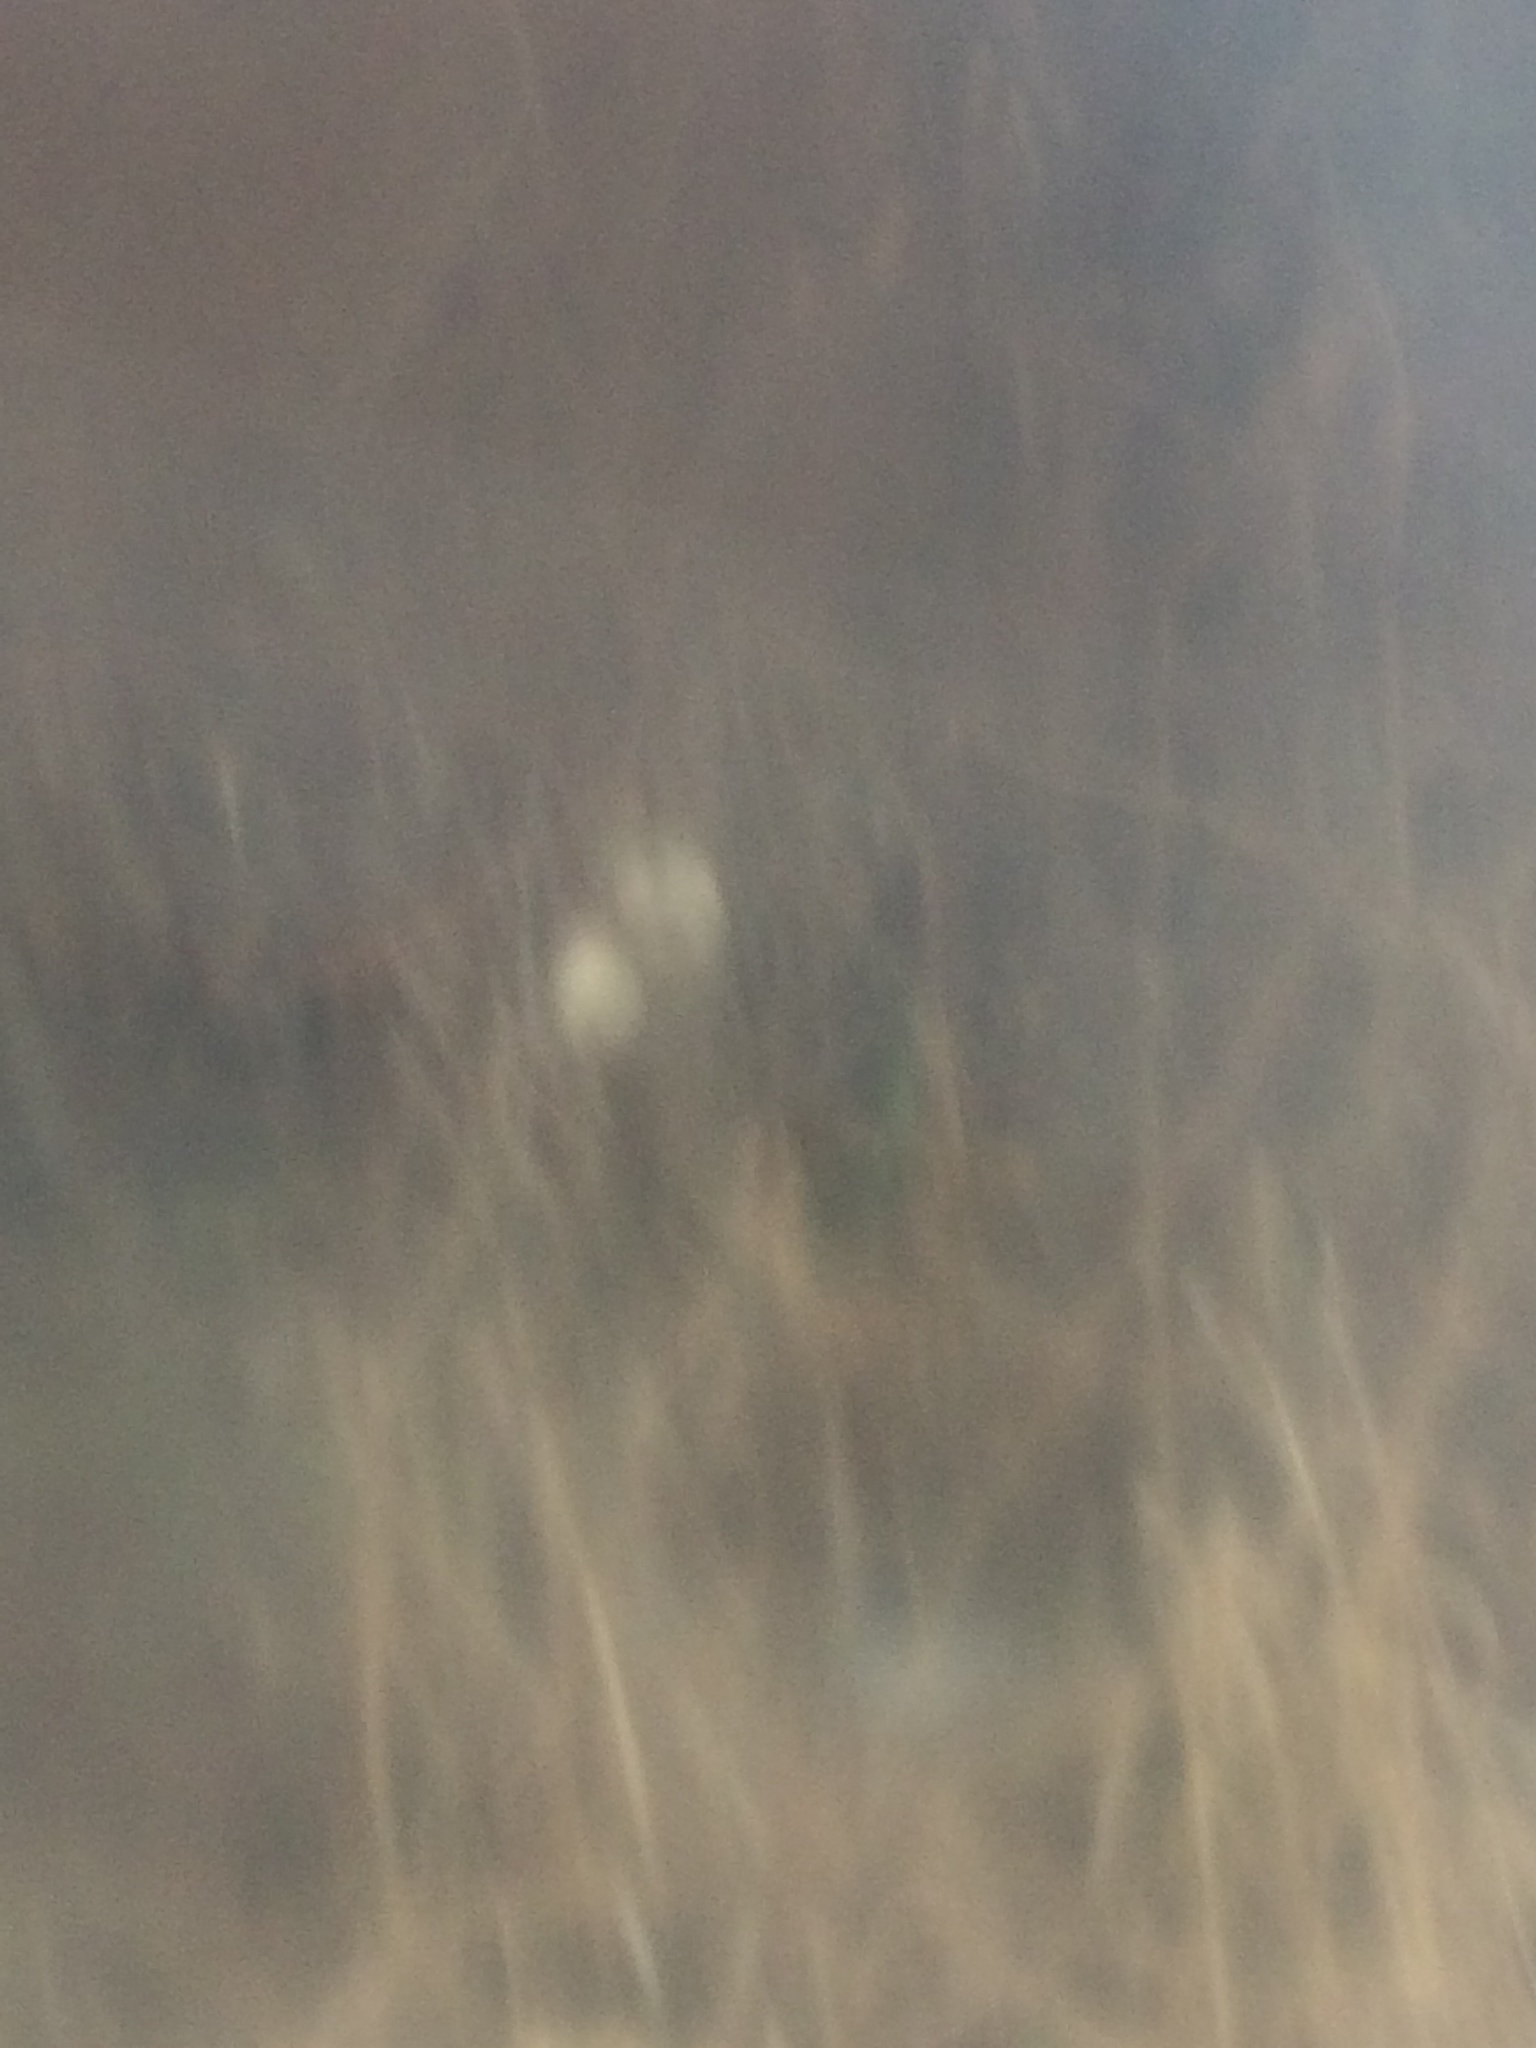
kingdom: Plantae
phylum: Tracheophyta
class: Magnoliopsida
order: Cucurbitales
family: Cucurbitaceae
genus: Echinocystis
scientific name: Echinocystis lobata
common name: Wild cucumber
